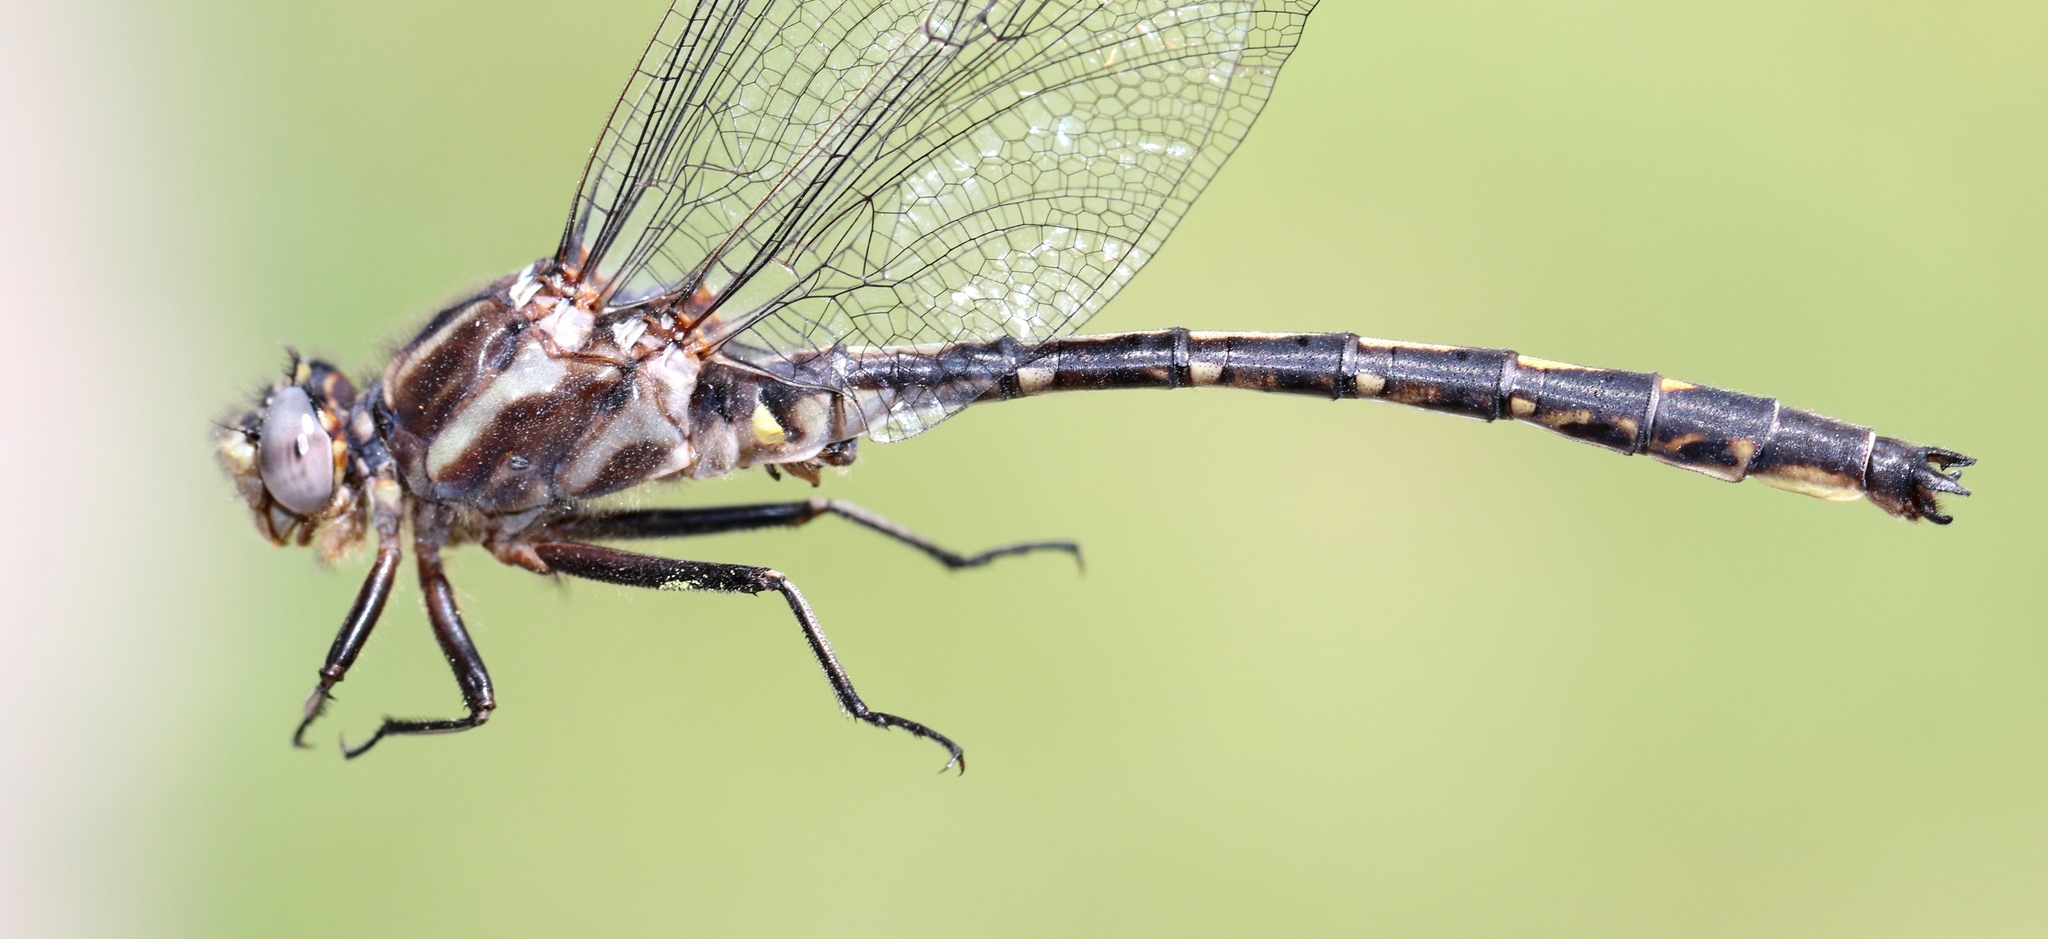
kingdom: Animalia
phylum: Arthropoda
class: Insecta
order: Odonata
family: Gomphidae
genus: Phanogomphus
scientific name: Phanogomphus spicatus
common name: Dusky clubtail
